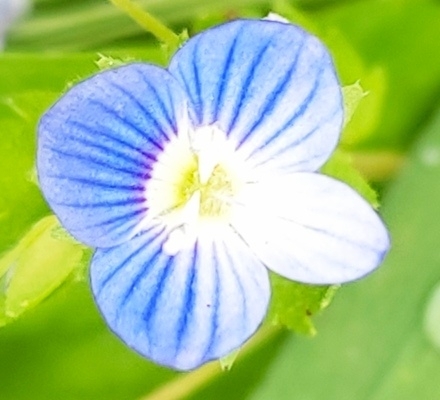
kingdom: Plantae
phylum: Tracheophyta
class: Magnoliopsida
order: Lamiales
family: Plantaginaceae
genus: Veronica
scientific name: Veronica persica
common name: Common field-speedwell
